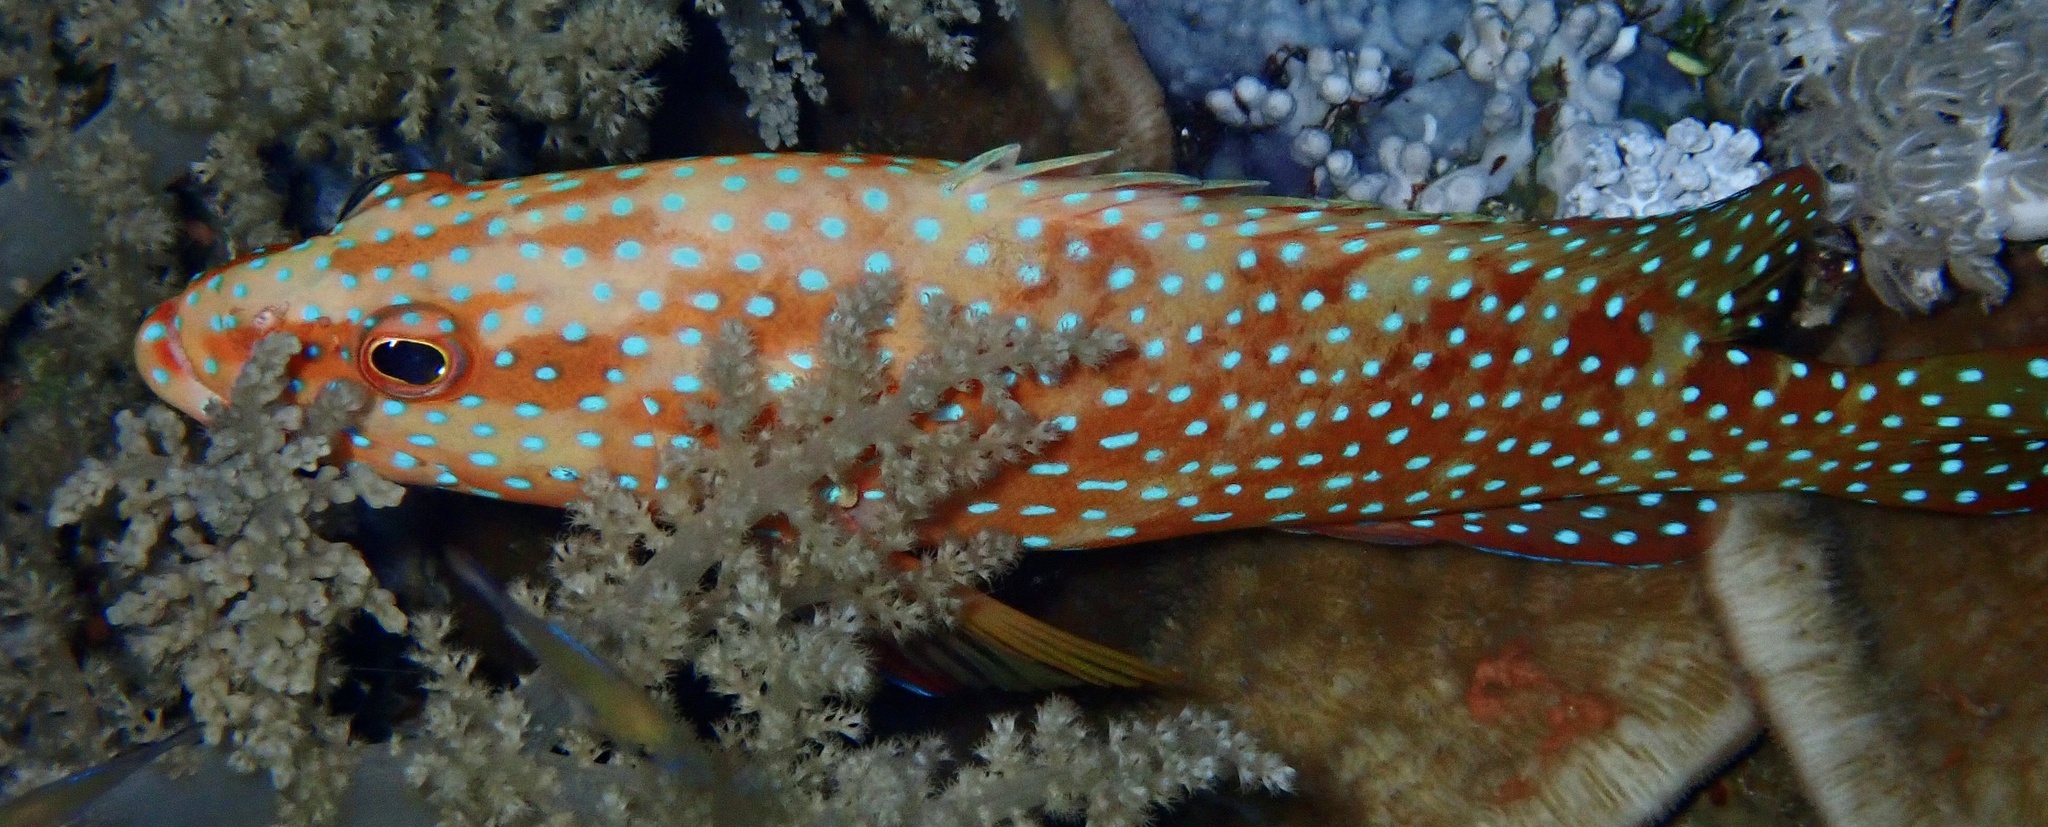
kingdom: Animalia
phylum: Chordata
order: Perciformes
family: Serranidae
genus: Cephalopholis
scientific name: Cephalopholis miniata
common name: Coral hind
